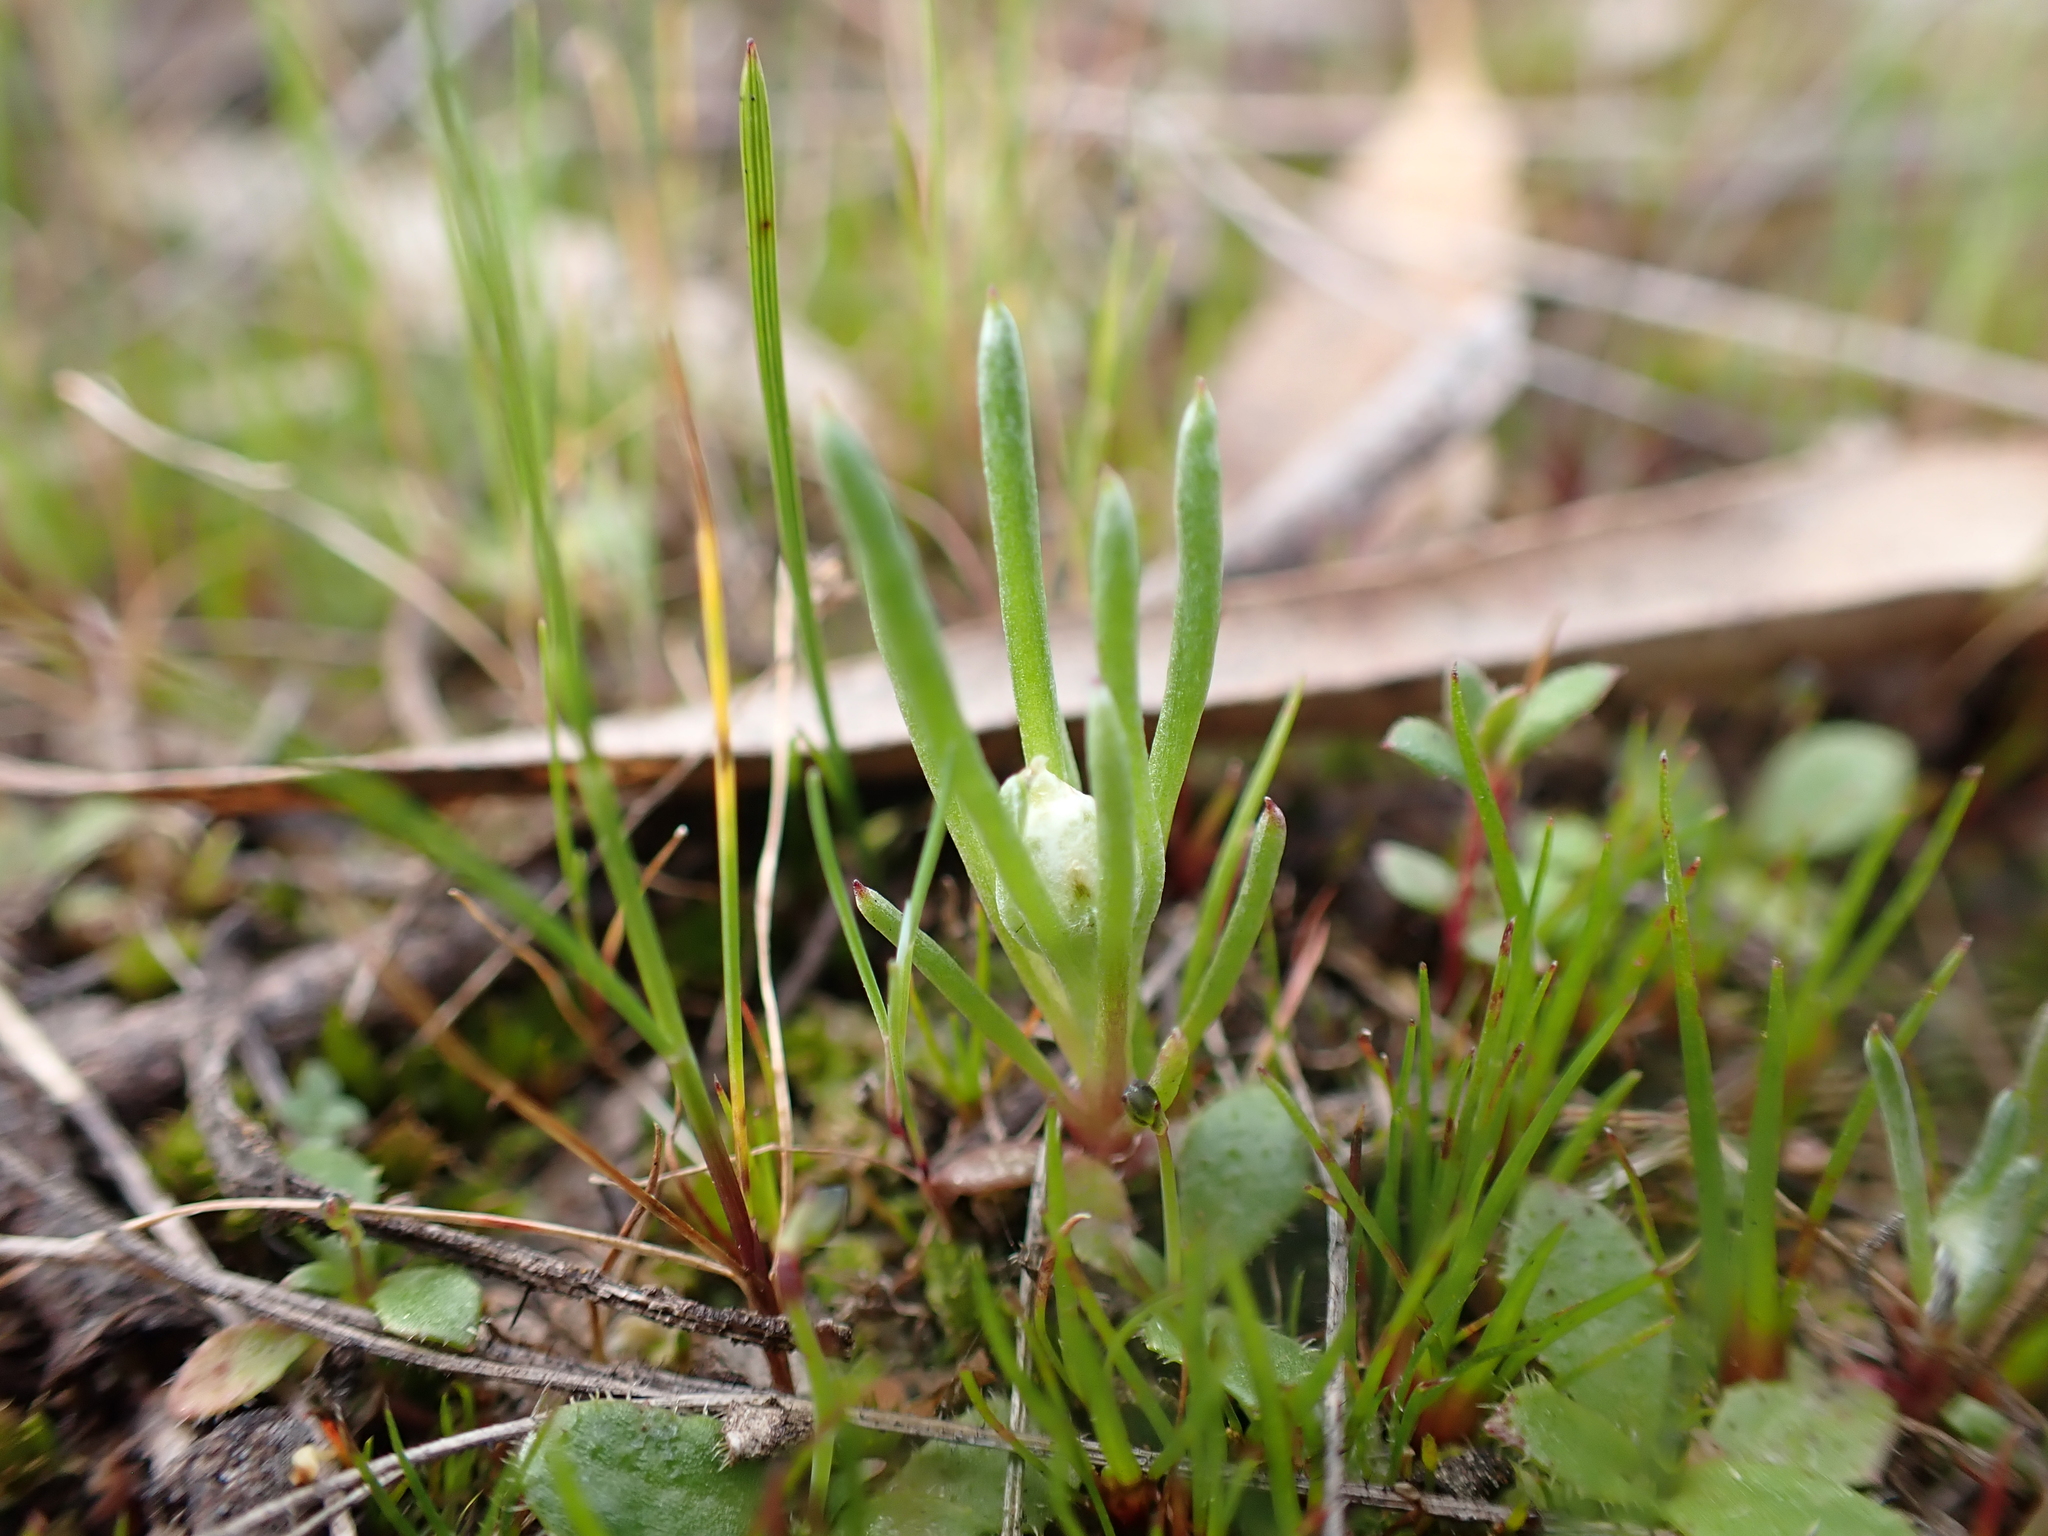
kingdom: Plantae
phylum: Tracheophyta
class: Magnoliopsida
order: Asterales
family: Asteraceae
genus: Blennospora
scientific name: Blennospora drummondii
